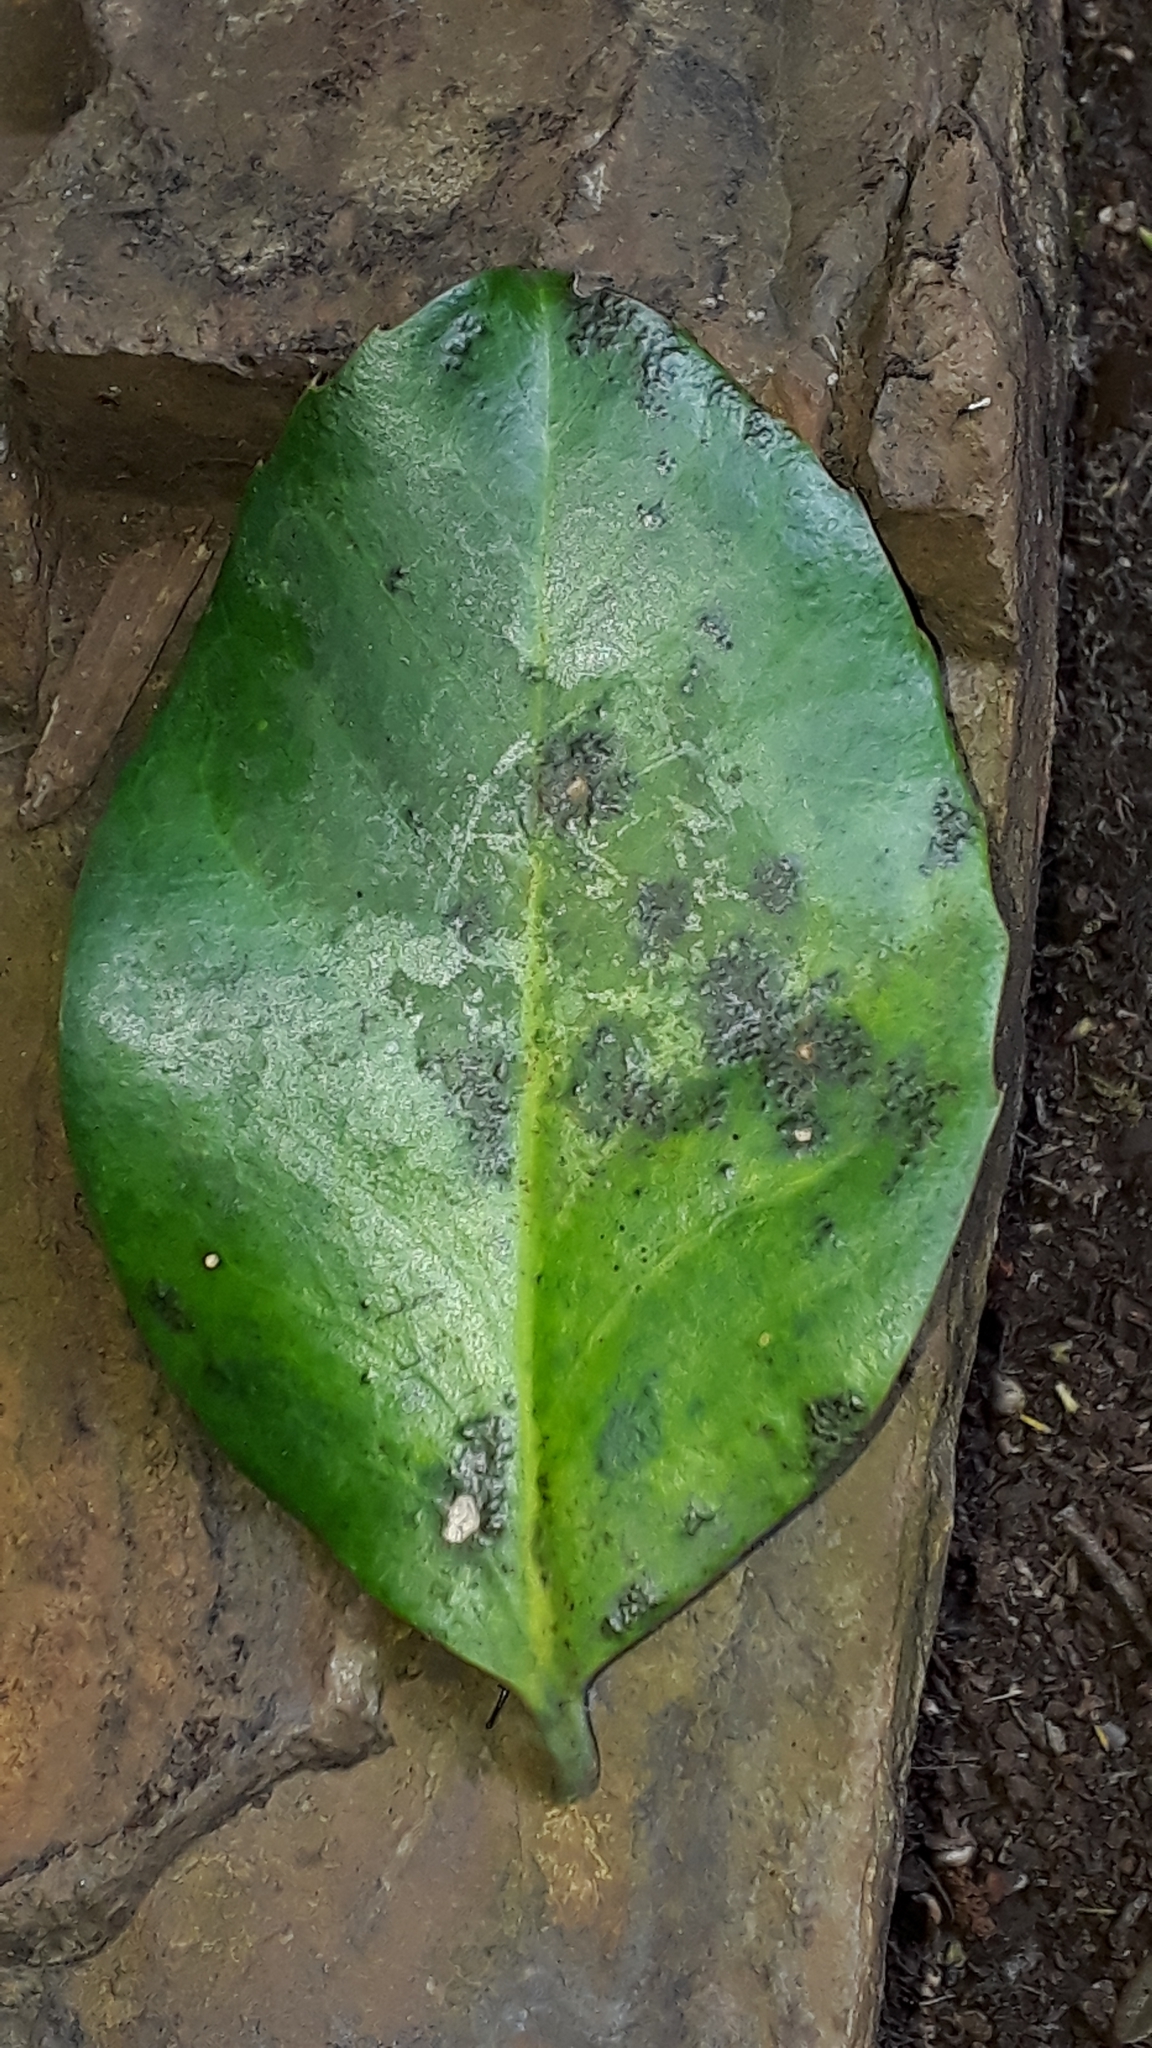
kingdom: Plantae
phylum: Tracheophyta
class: Magnoliopsida
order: Aquifoliales
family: Aquifoliaceae
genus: Ilex
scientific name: Ilex perado
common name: Madeira holly
